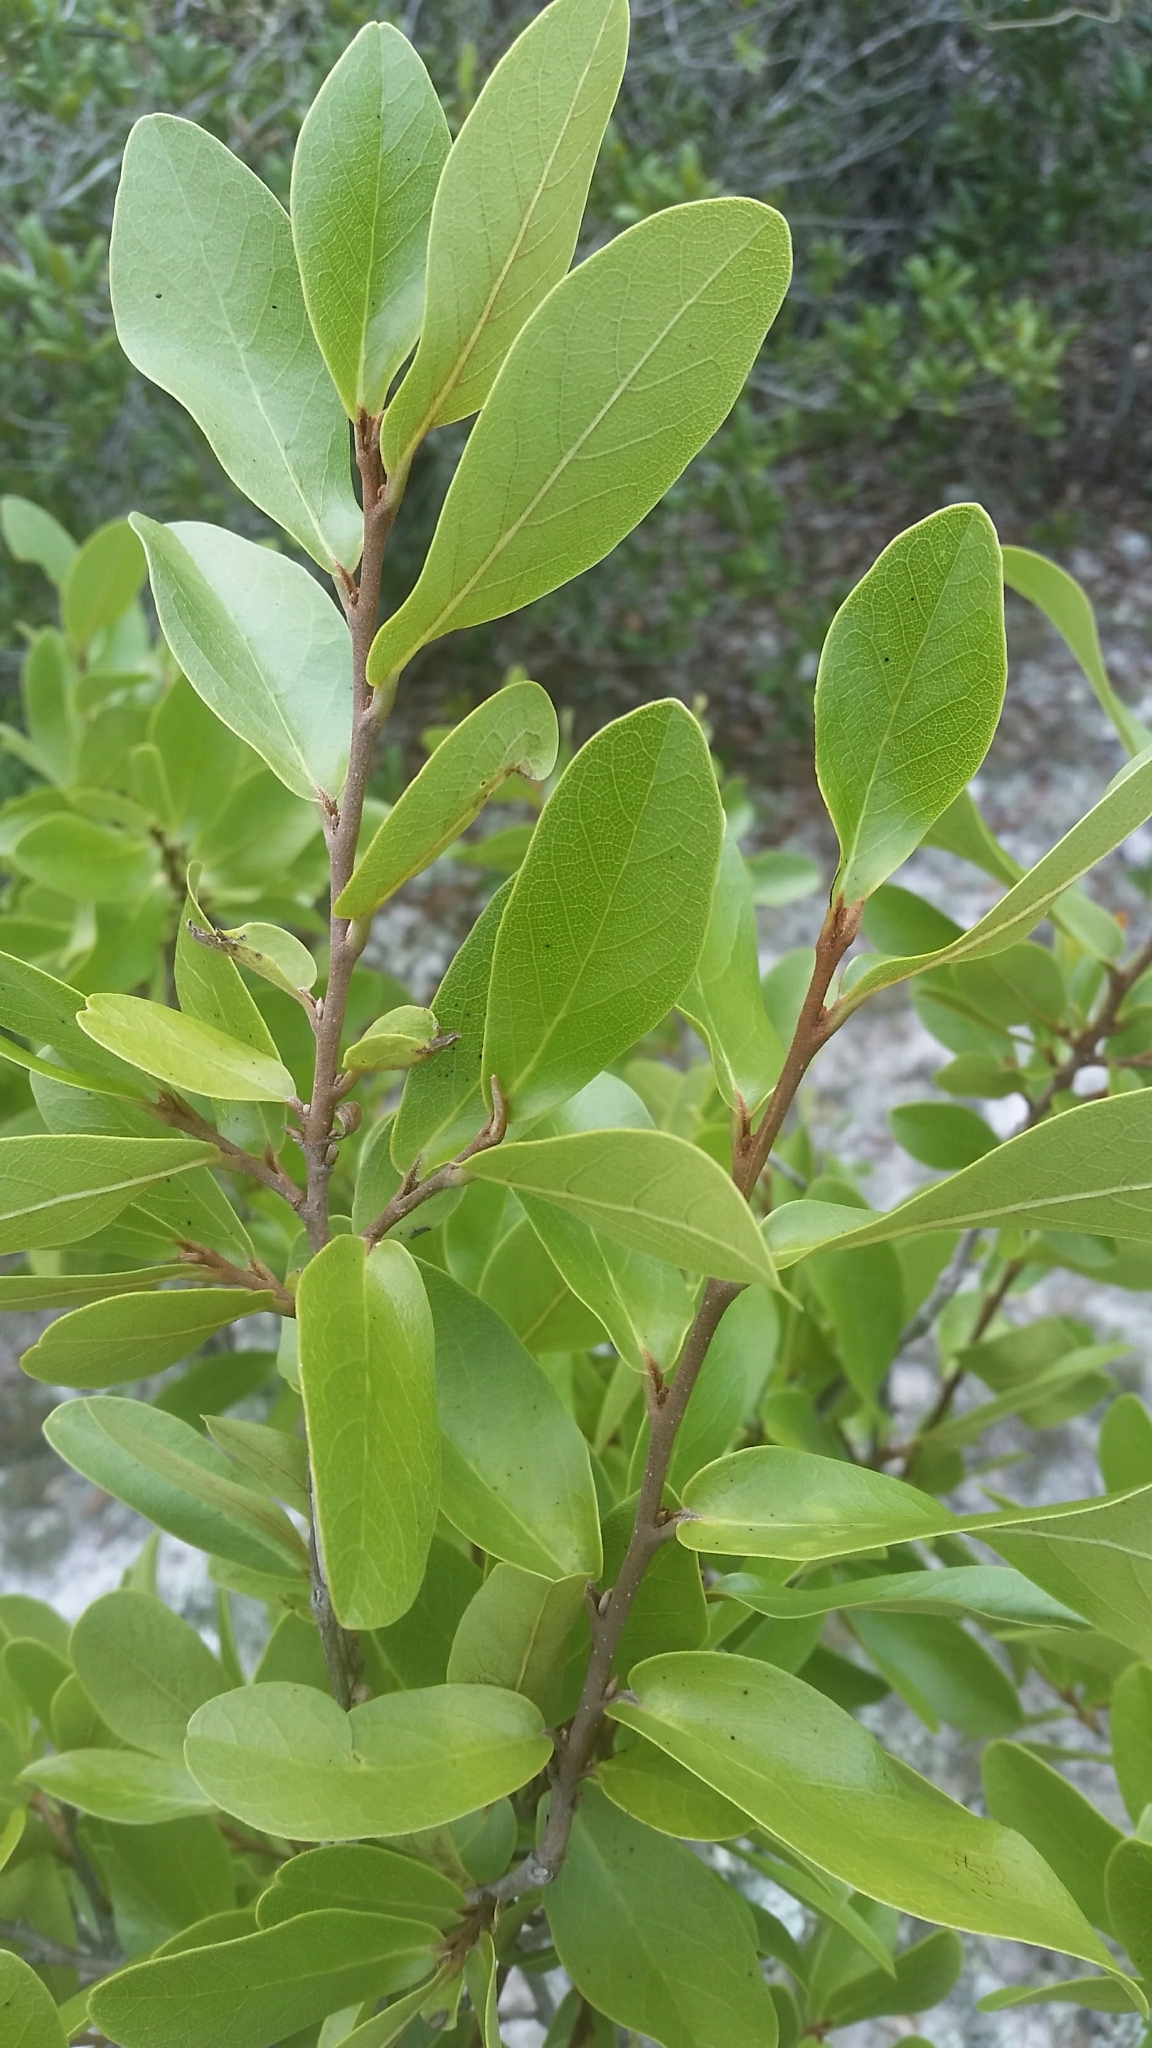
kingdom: Plantae
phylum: Tracheophyta
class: Magnoliopsida
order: Magnoliales
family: Annonaceae
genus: Asimina
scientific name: Asimina obovata
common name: Flag pawpaw
